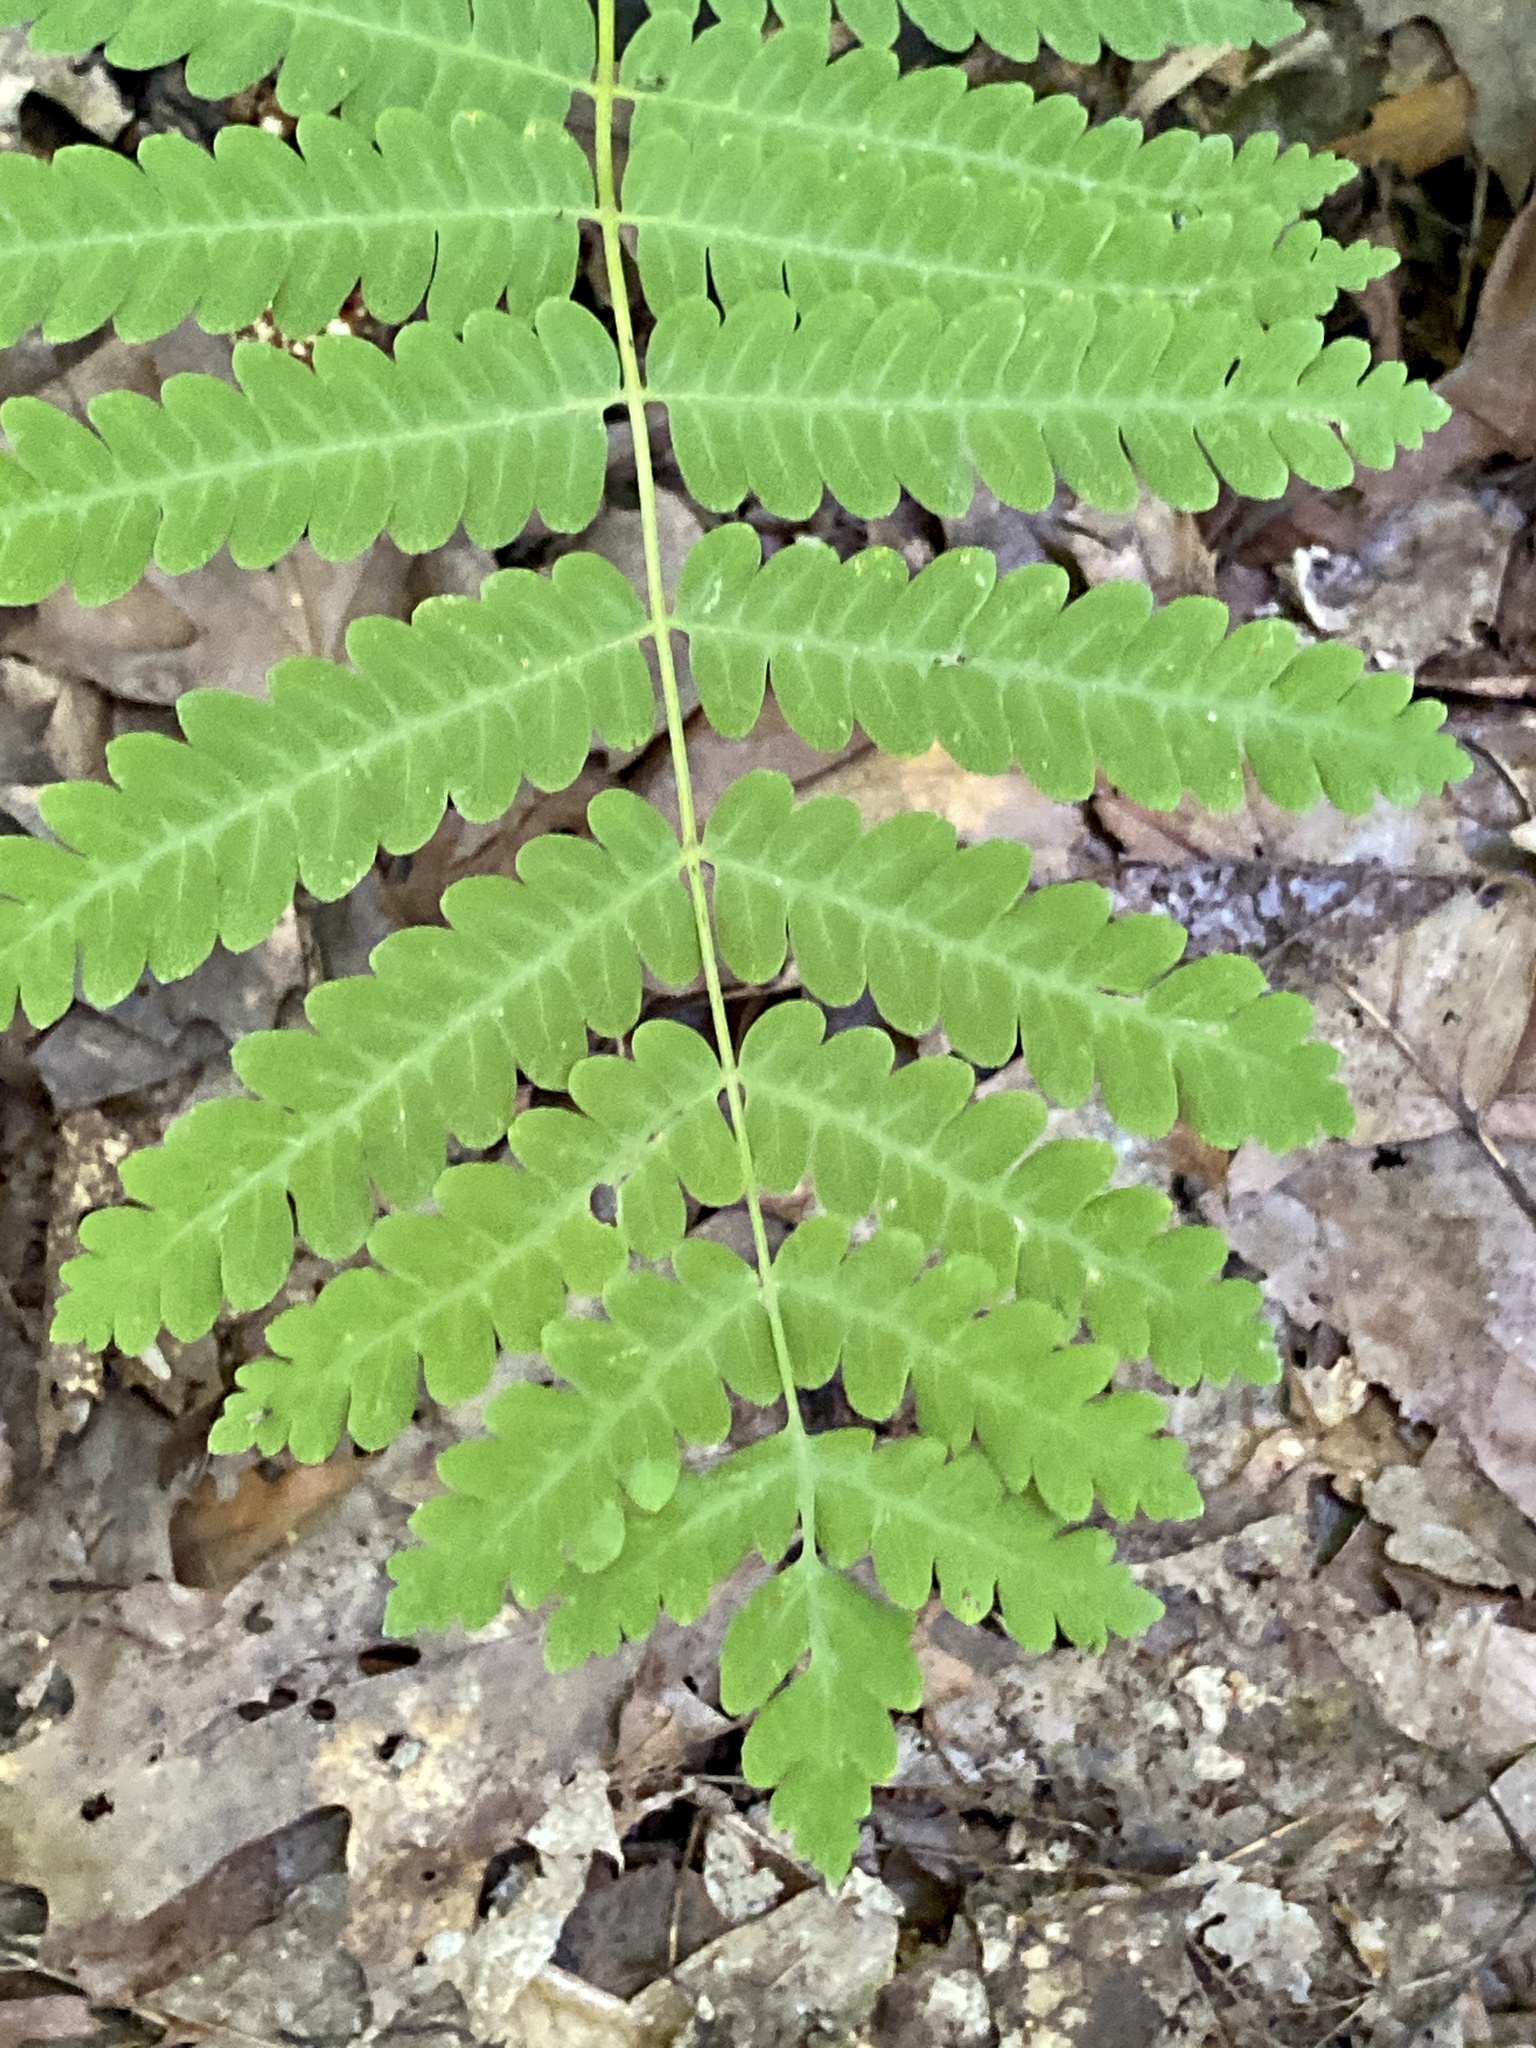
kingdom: Plantae
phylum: Tracheophyta
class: Polypodiopsida
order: Osmundales
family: Osmundaceae
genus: Claytosmunda
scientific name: Claytosmunda claytoniana
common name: Clayton's fern
